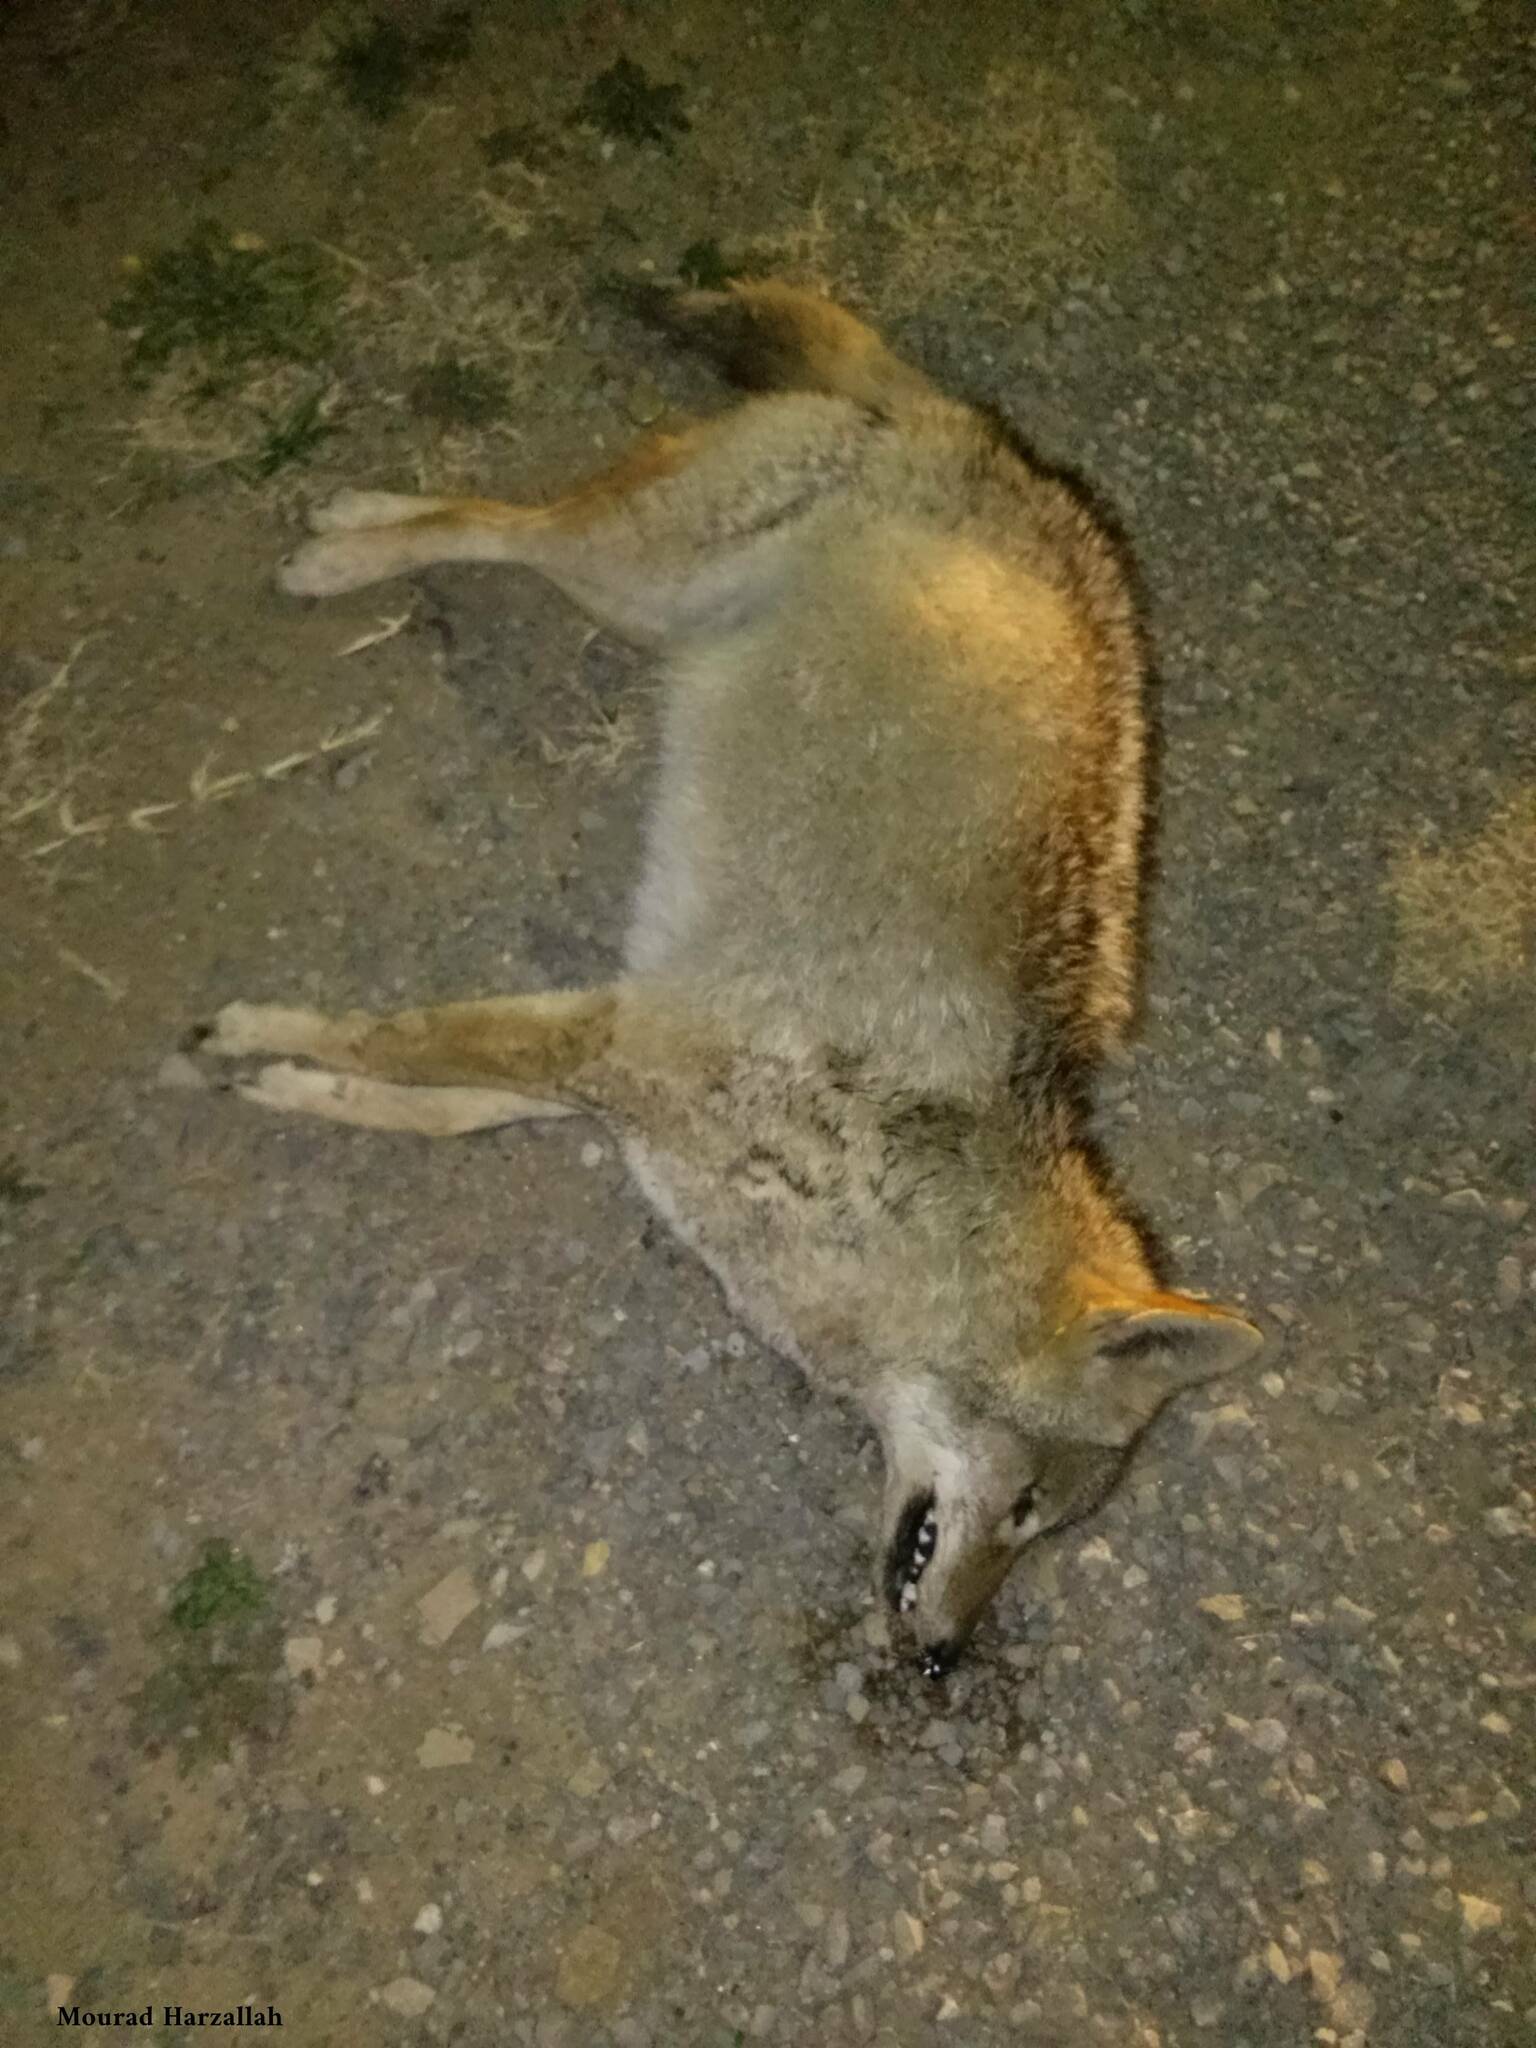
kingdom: Animalia
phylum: Chordata
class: Mammalia
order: Carnivora
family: Canidae
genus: Canis
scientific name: Canis lupaster
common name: African golden wolf
